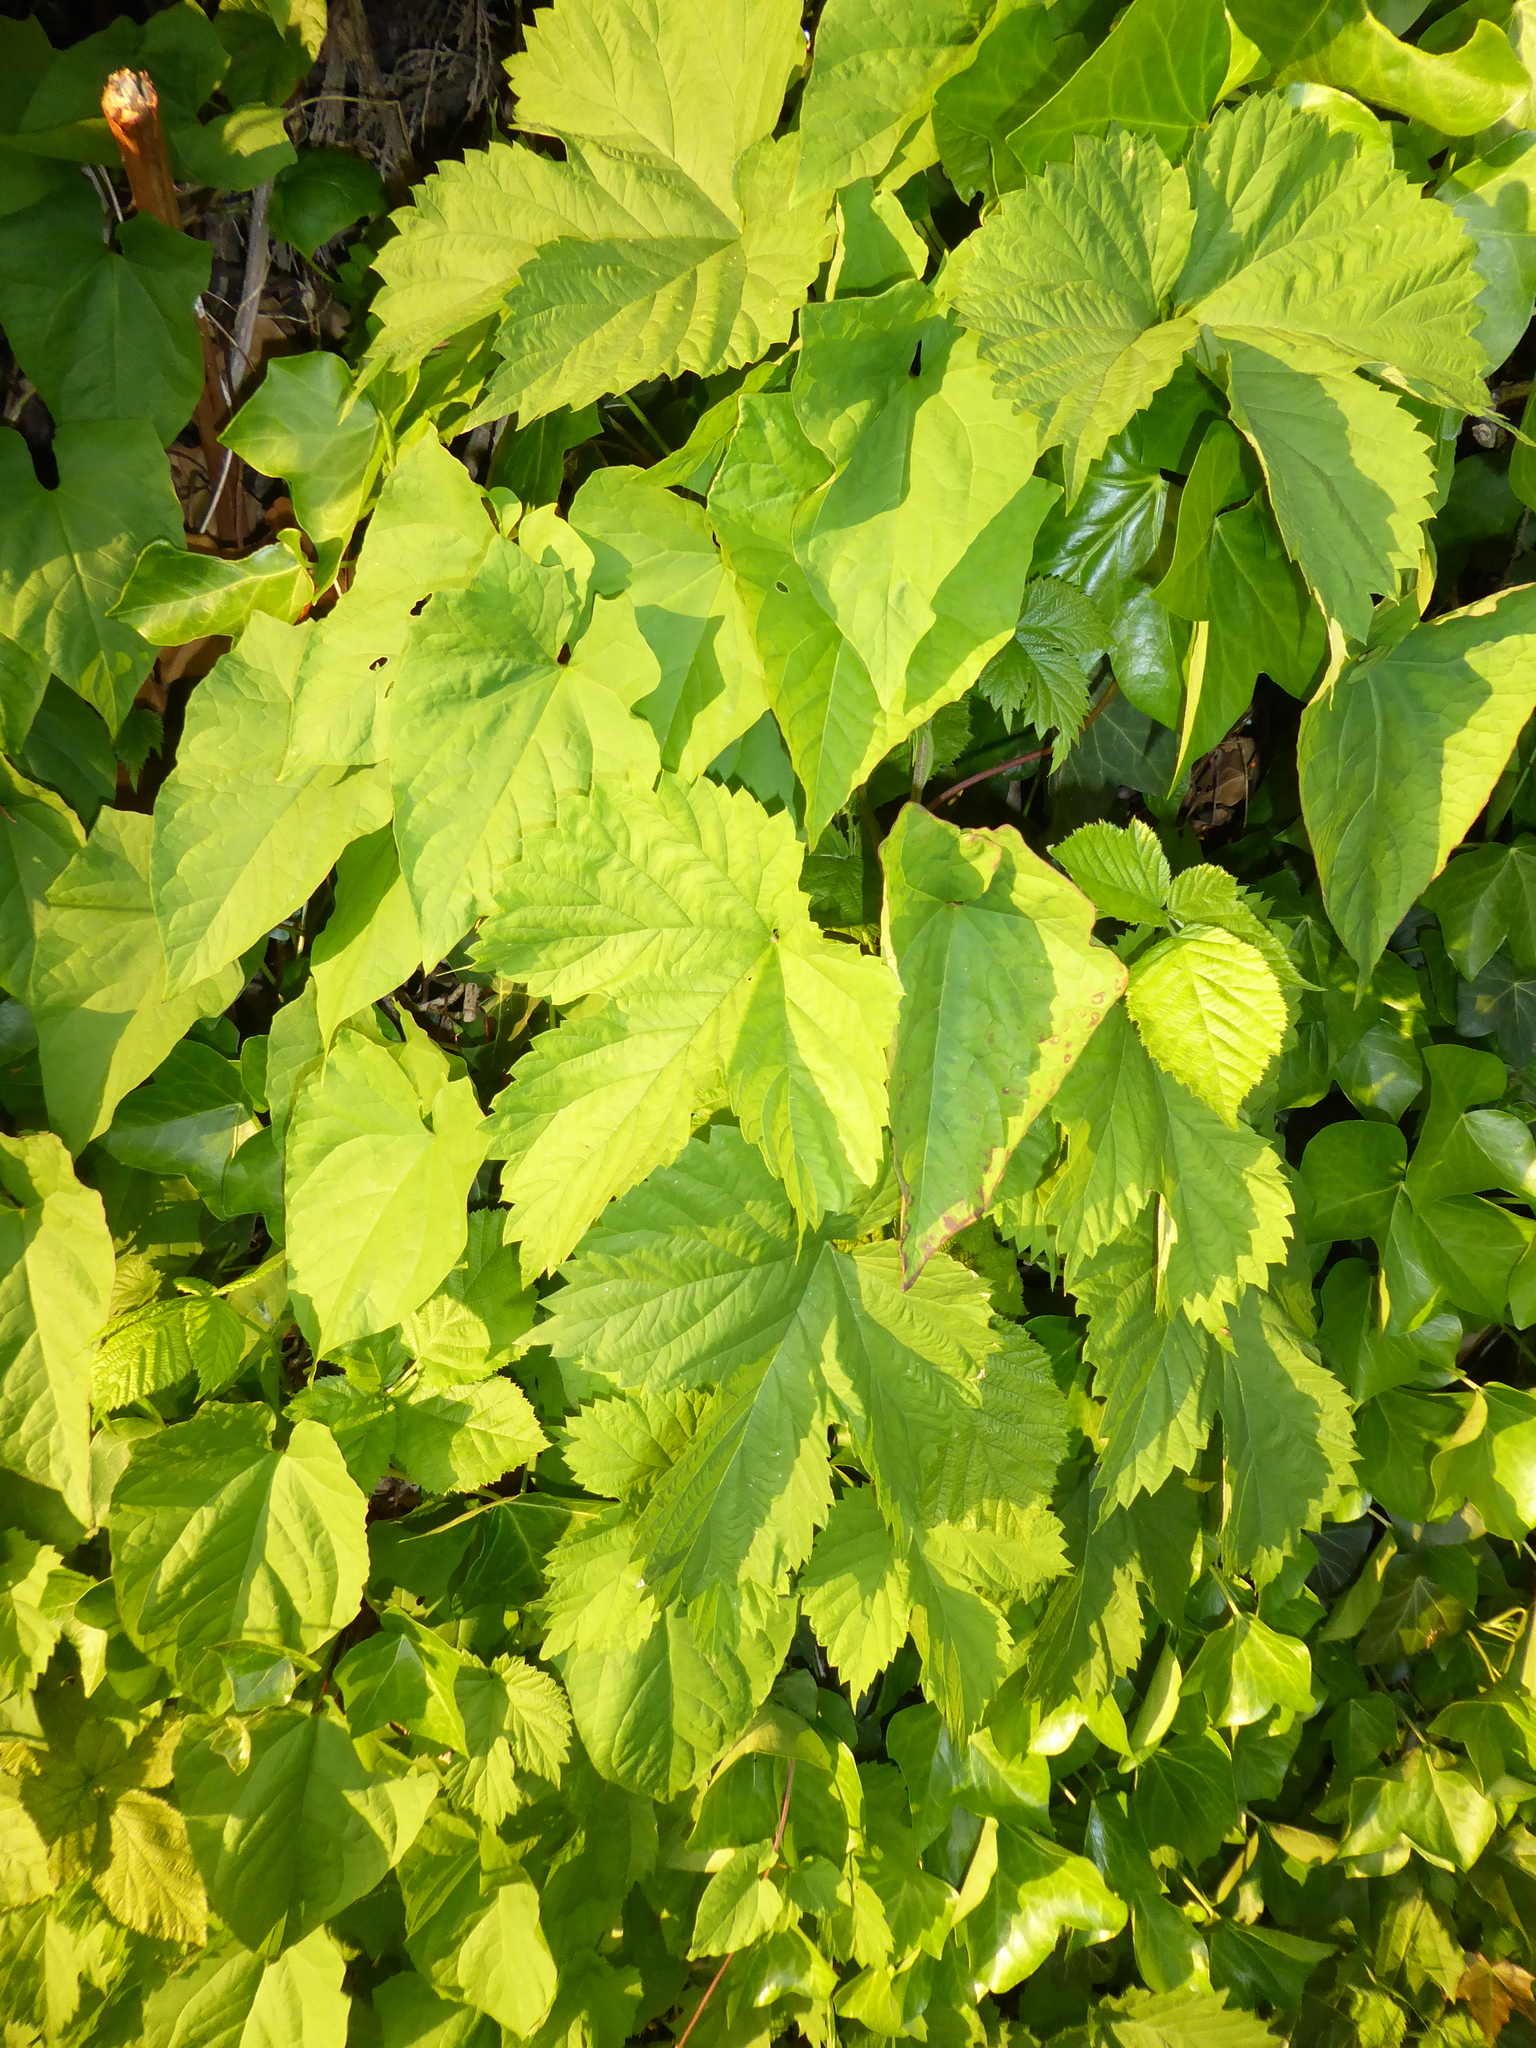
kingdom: Plantae
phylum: Tracheophyta
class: Magnoliopsida
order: Rosales
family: Cannabaceae
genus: Humulus
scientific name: Humulus lupulus
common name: Hop
